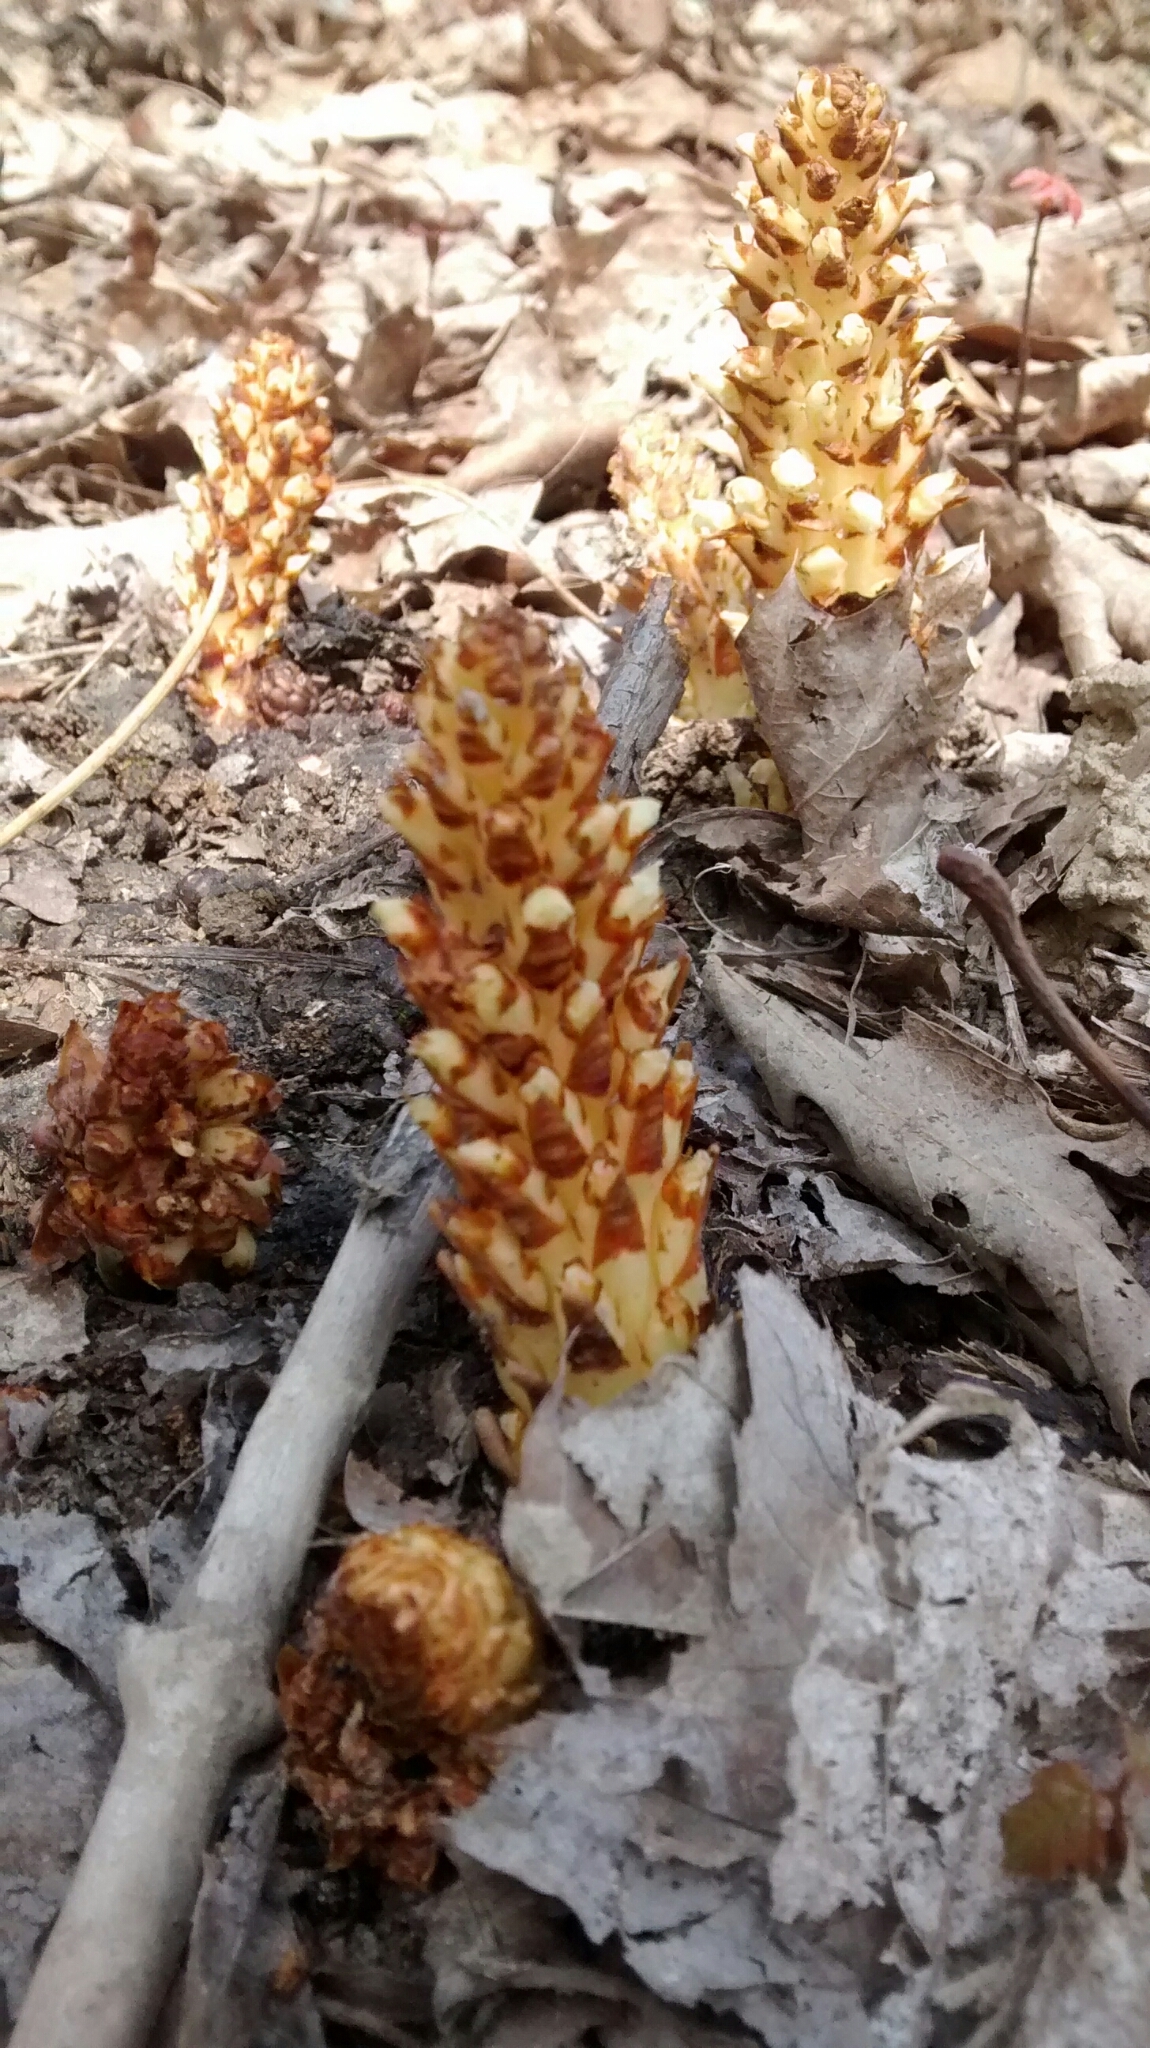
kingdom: Plantae
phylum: Tracheophyta
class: Magnoliopsida
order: Lamiales
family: Orobanchaceae
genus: Conopholis
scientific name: Conopholis americana
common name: American cancer-root
